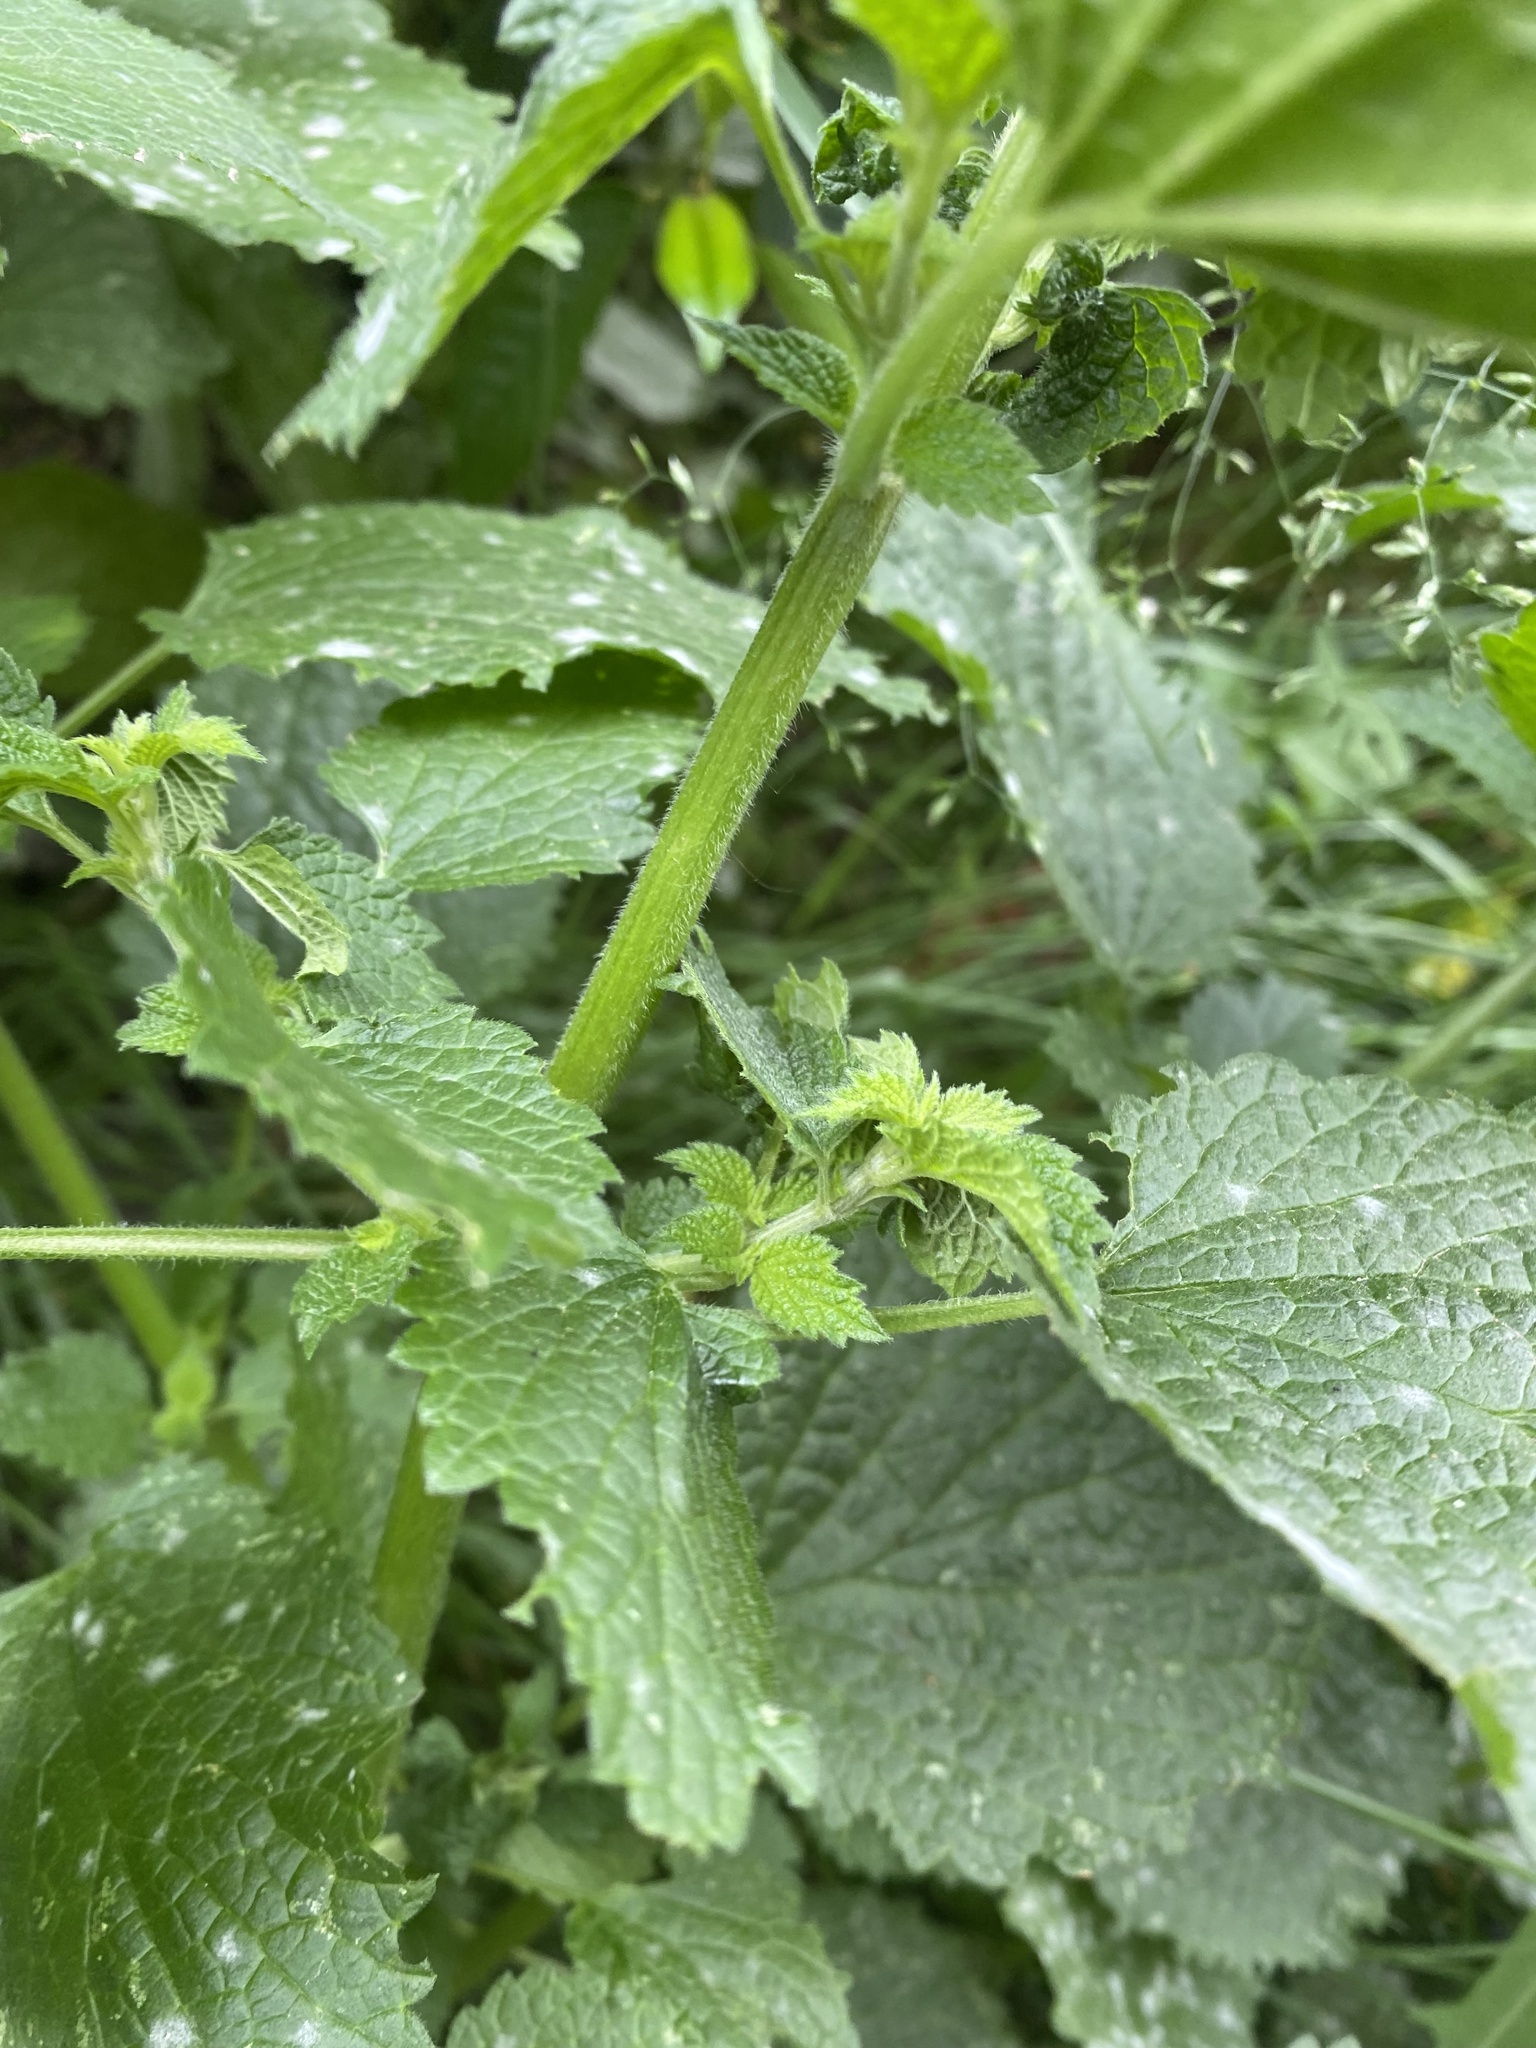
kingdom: Plantae
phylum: Tracheophyta
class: Magnoliopsida
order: Lamiales
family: Lamiaceae
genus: Ballota
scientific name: Ballota nigra
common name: Black horehound
